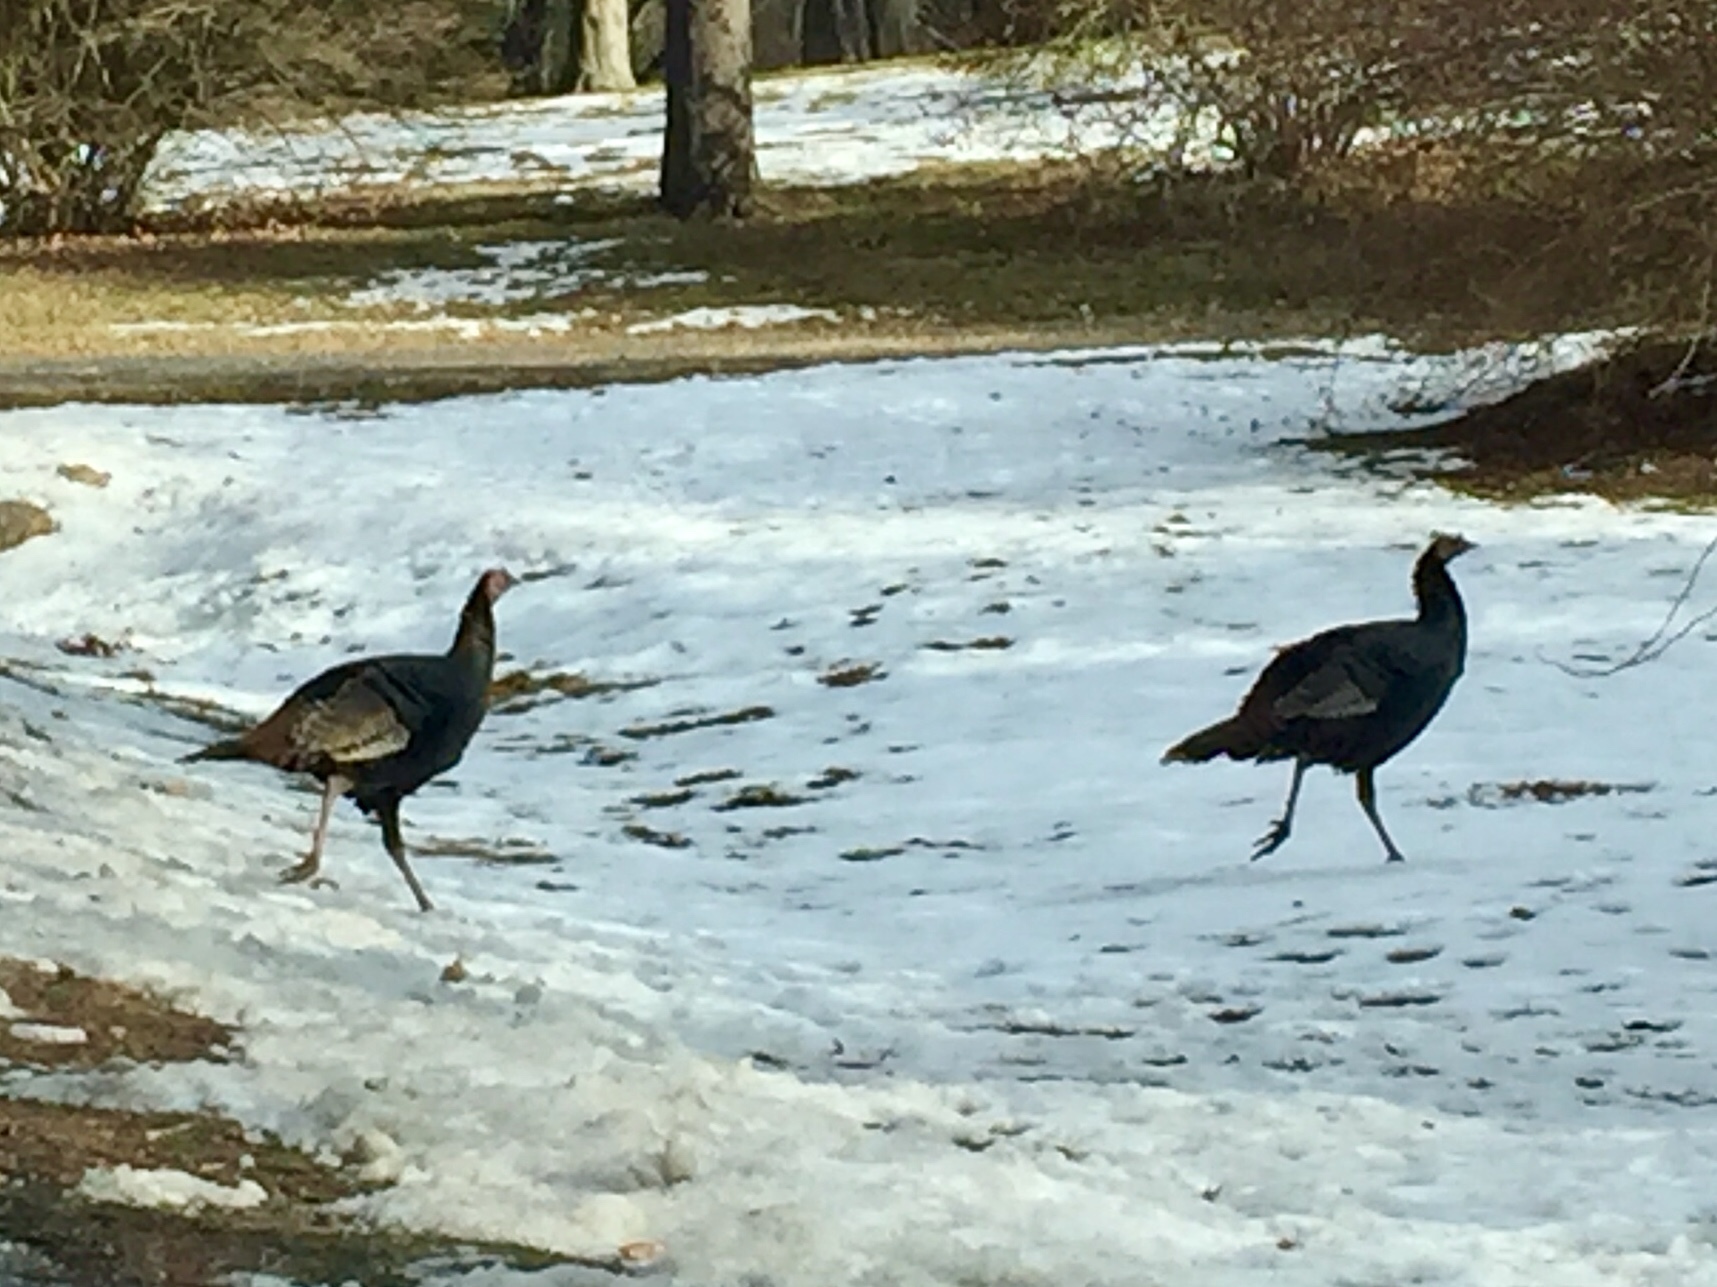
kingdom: Animalia
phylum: Chordata
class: Aves
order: Galliformes
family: Phasianidae
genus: Meleagris
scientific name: Meleagris gallopavo
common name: Wild turkey
